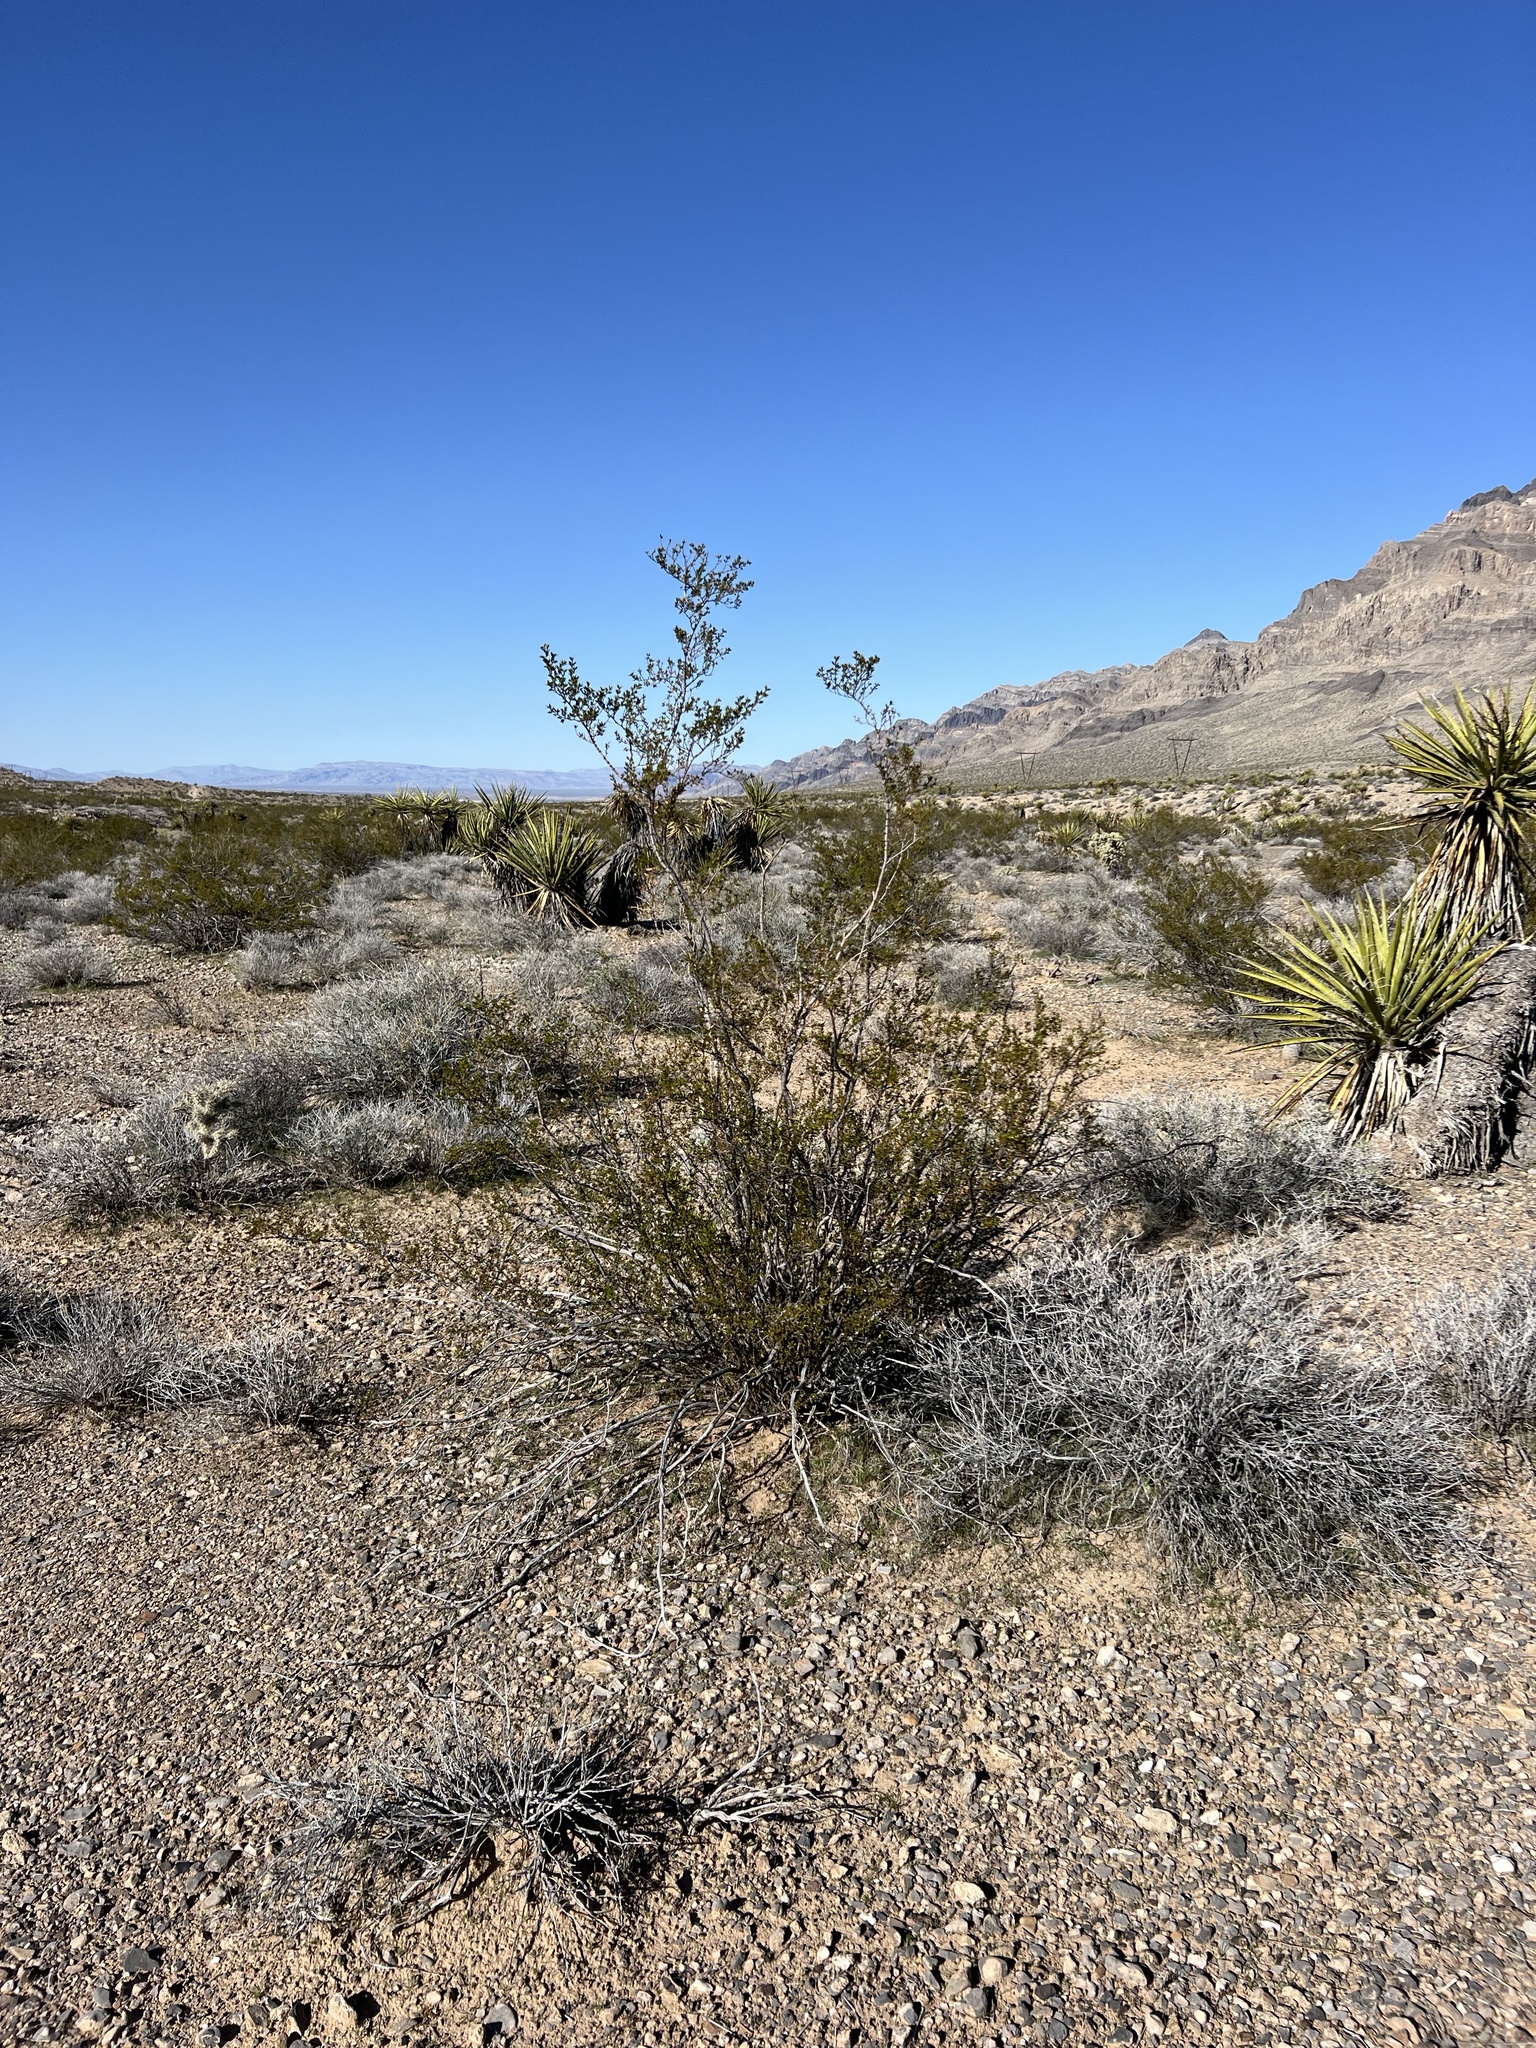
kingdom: Plantae
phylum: Tracheophyta
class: Magnoliopsida
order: Zygophyllales
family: Zygophyllaceae
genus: Larrea
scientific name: Larrea tridentata
